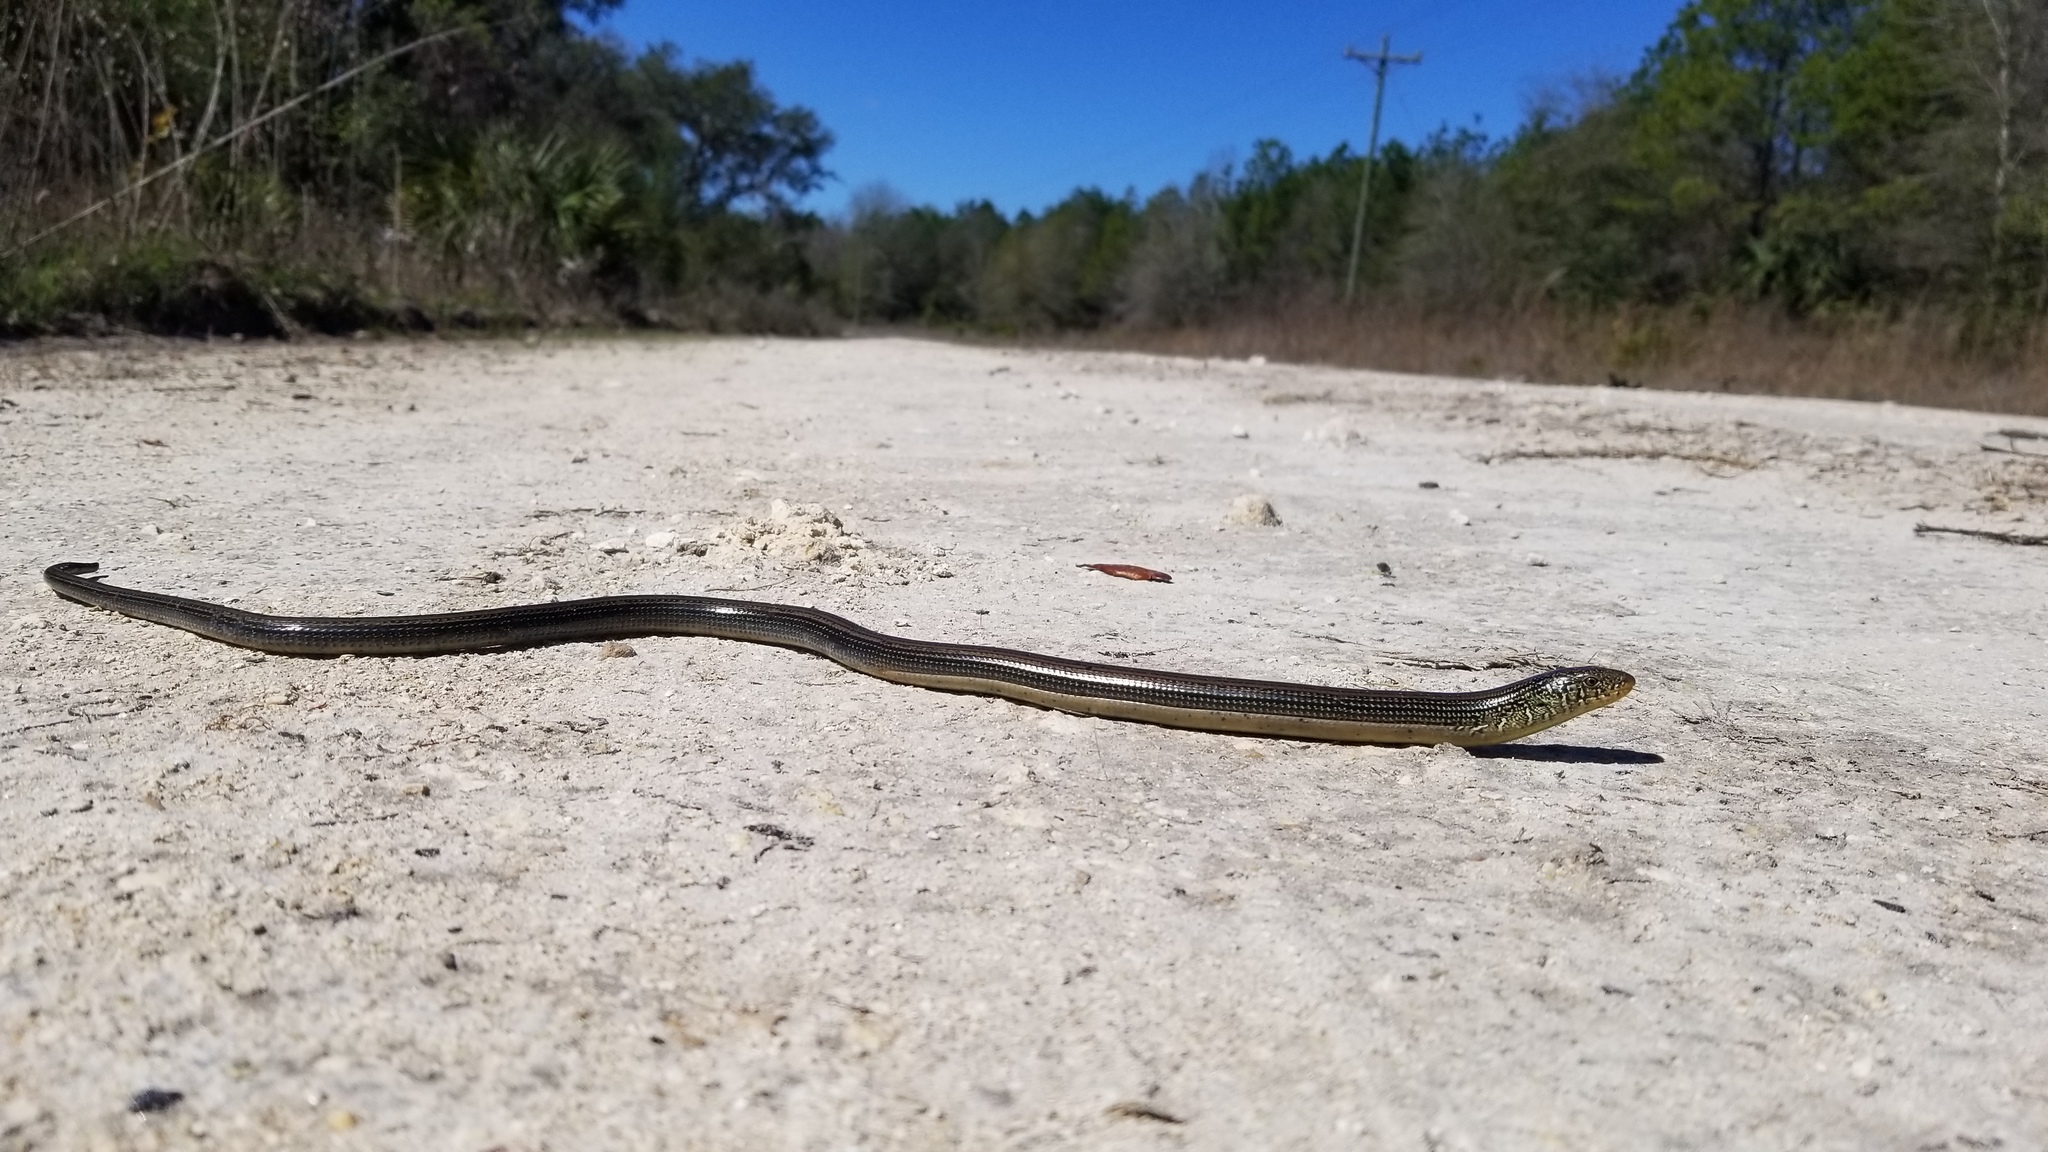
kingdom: Animalia
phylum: Chordata
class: Squamata
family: Anguidae
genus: Ophisaurus
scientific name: Ophisaurus ventralis
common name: Eastern glass lizard
